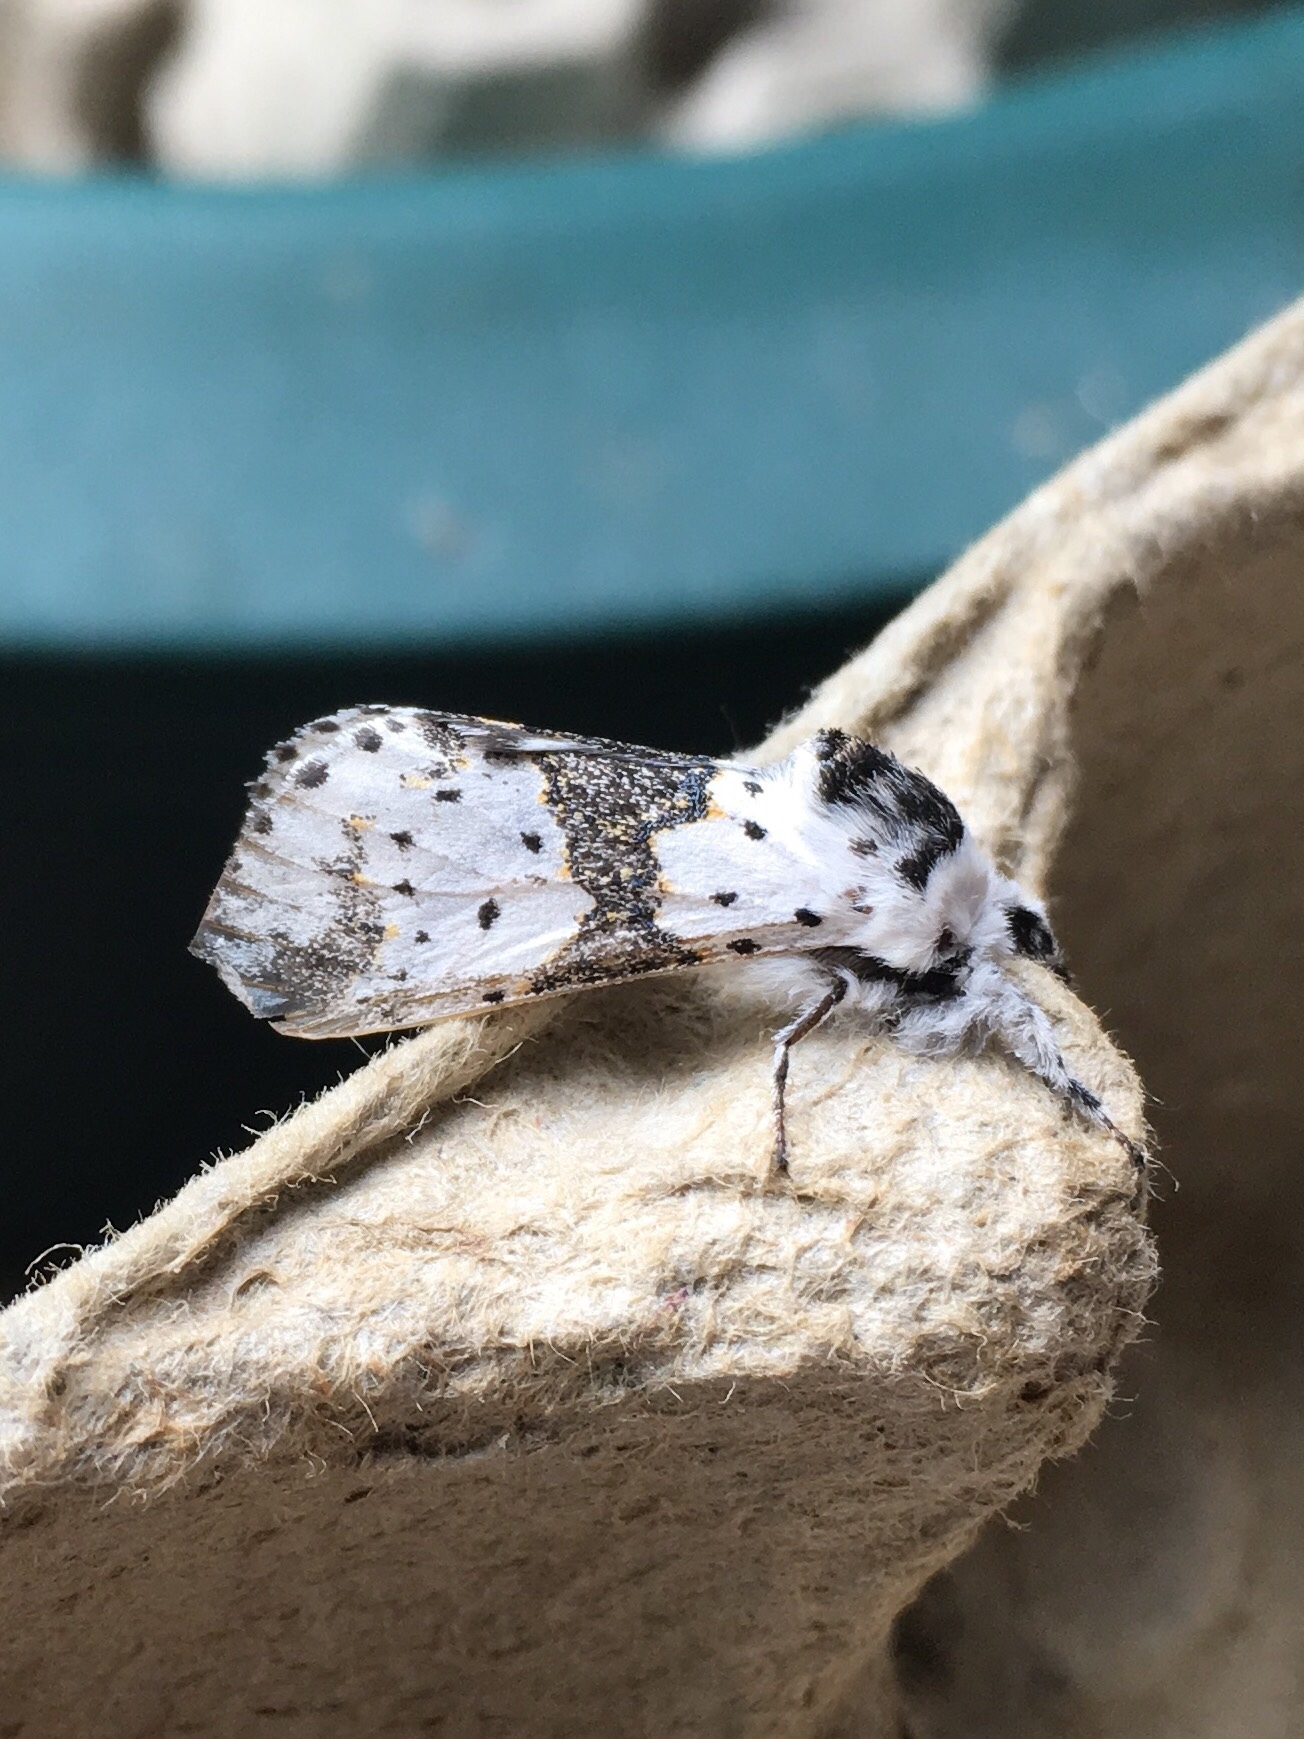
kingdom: Animalia
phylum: Arthropoda
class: Insecta
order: Lepidoptera
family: Notodontidae
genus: Furcula
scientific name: Furcula borealis
